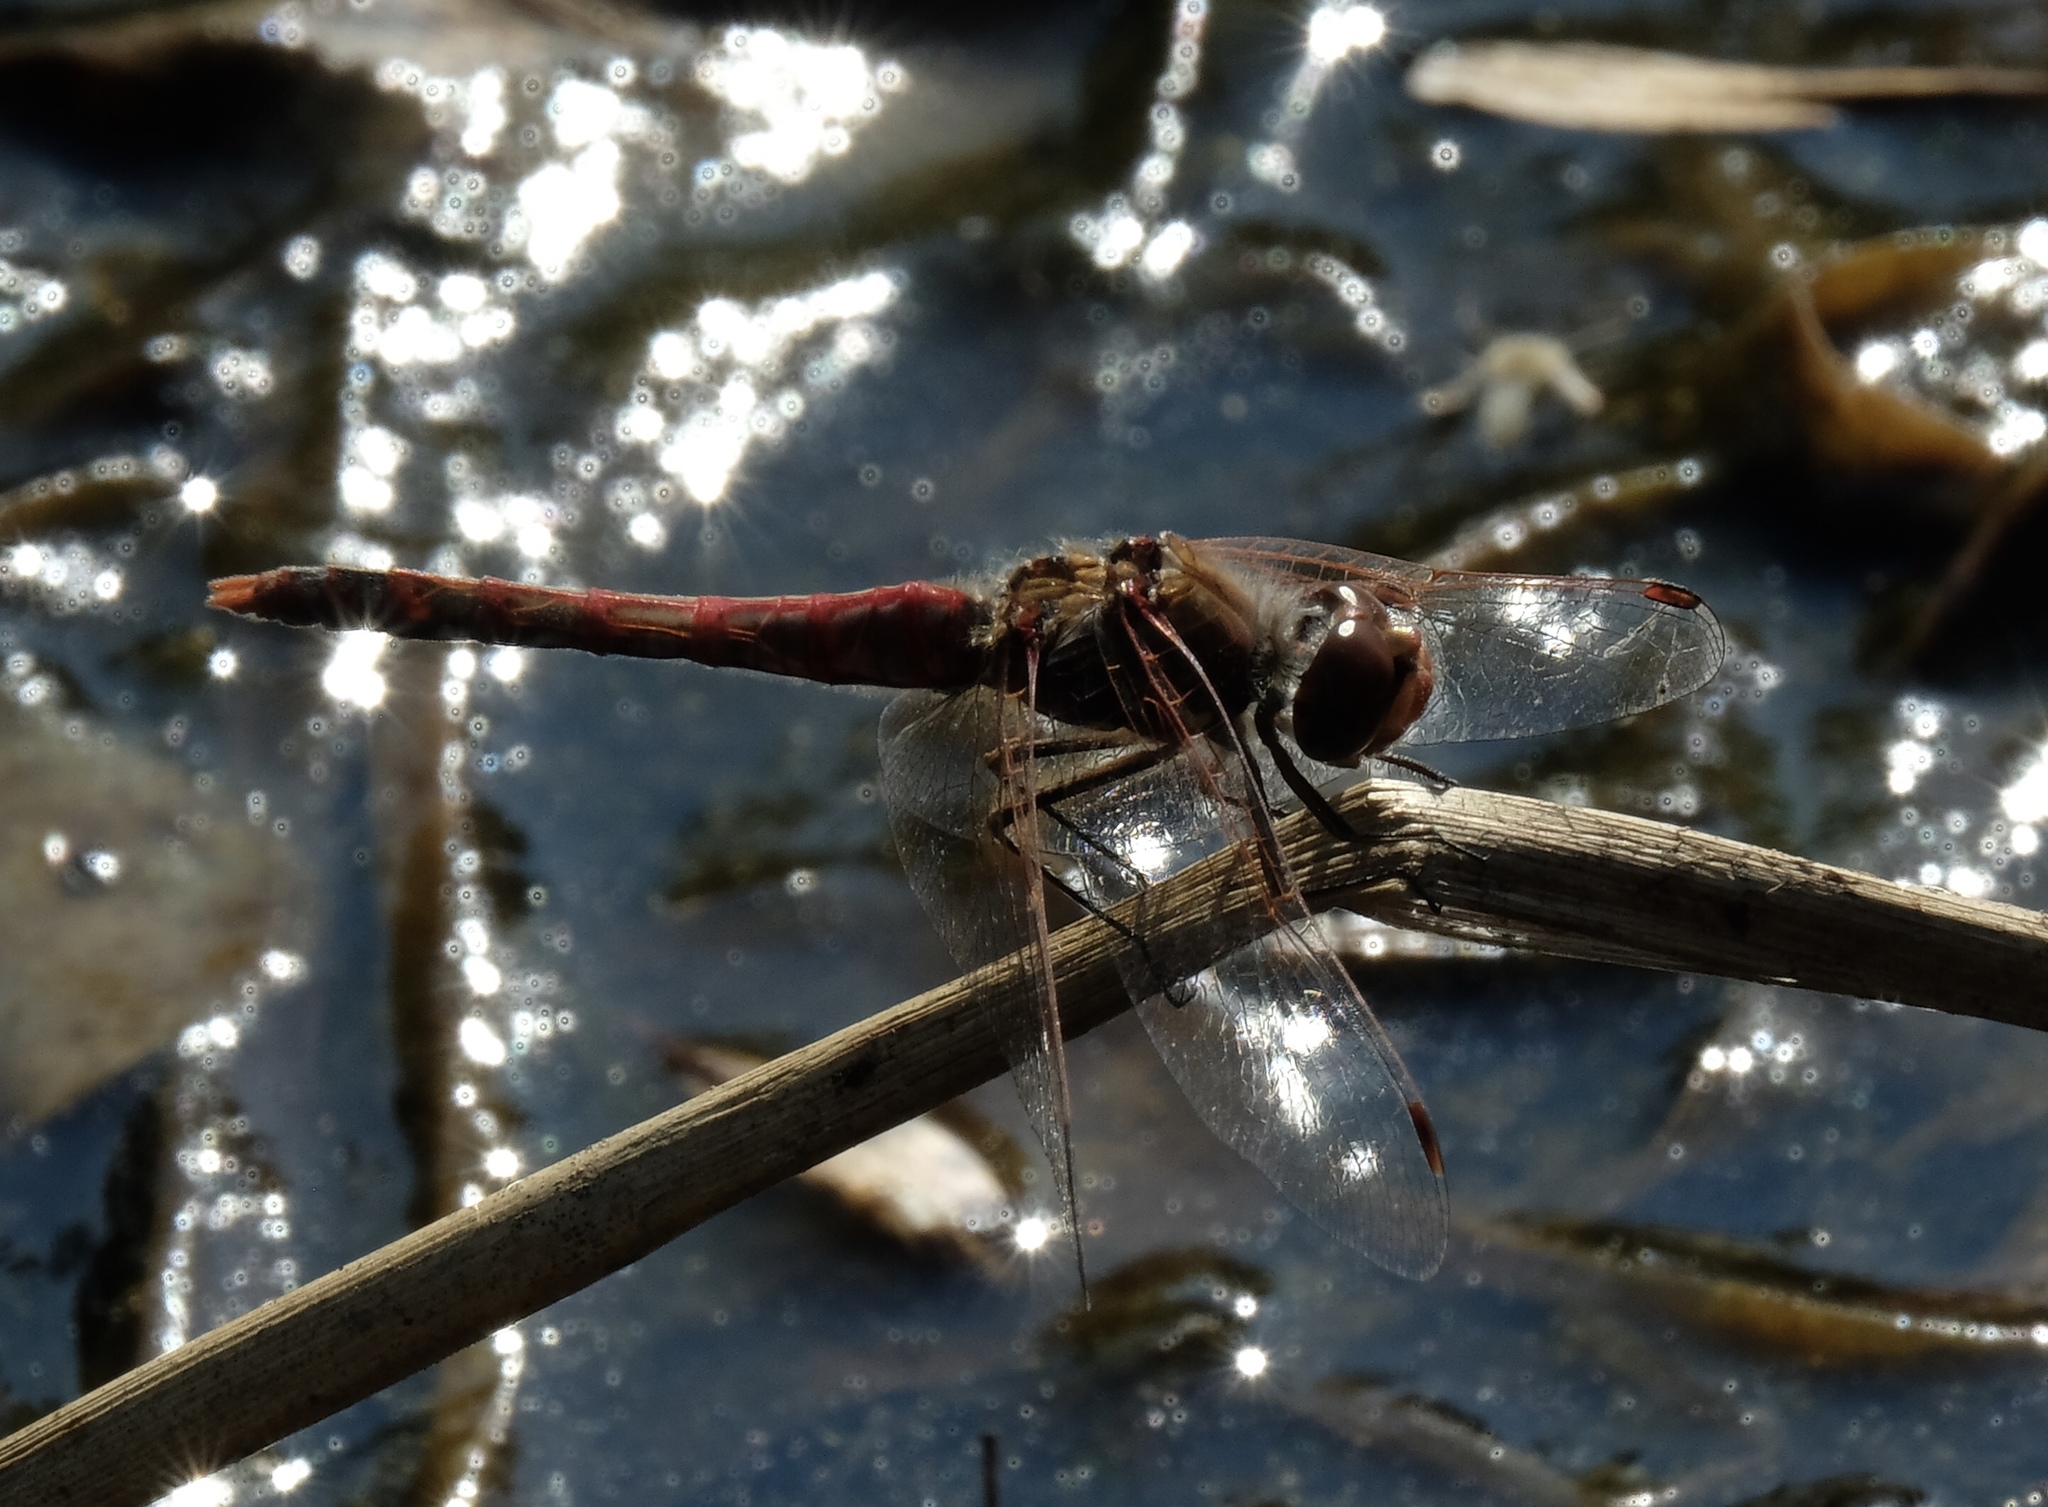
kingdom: Animalia
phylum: Arthropoda
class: Insecta
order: Odonata
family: Libellulidae
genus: Sympetrum
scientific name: Sympetrum corruptum
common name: Variegated meadowhawk
